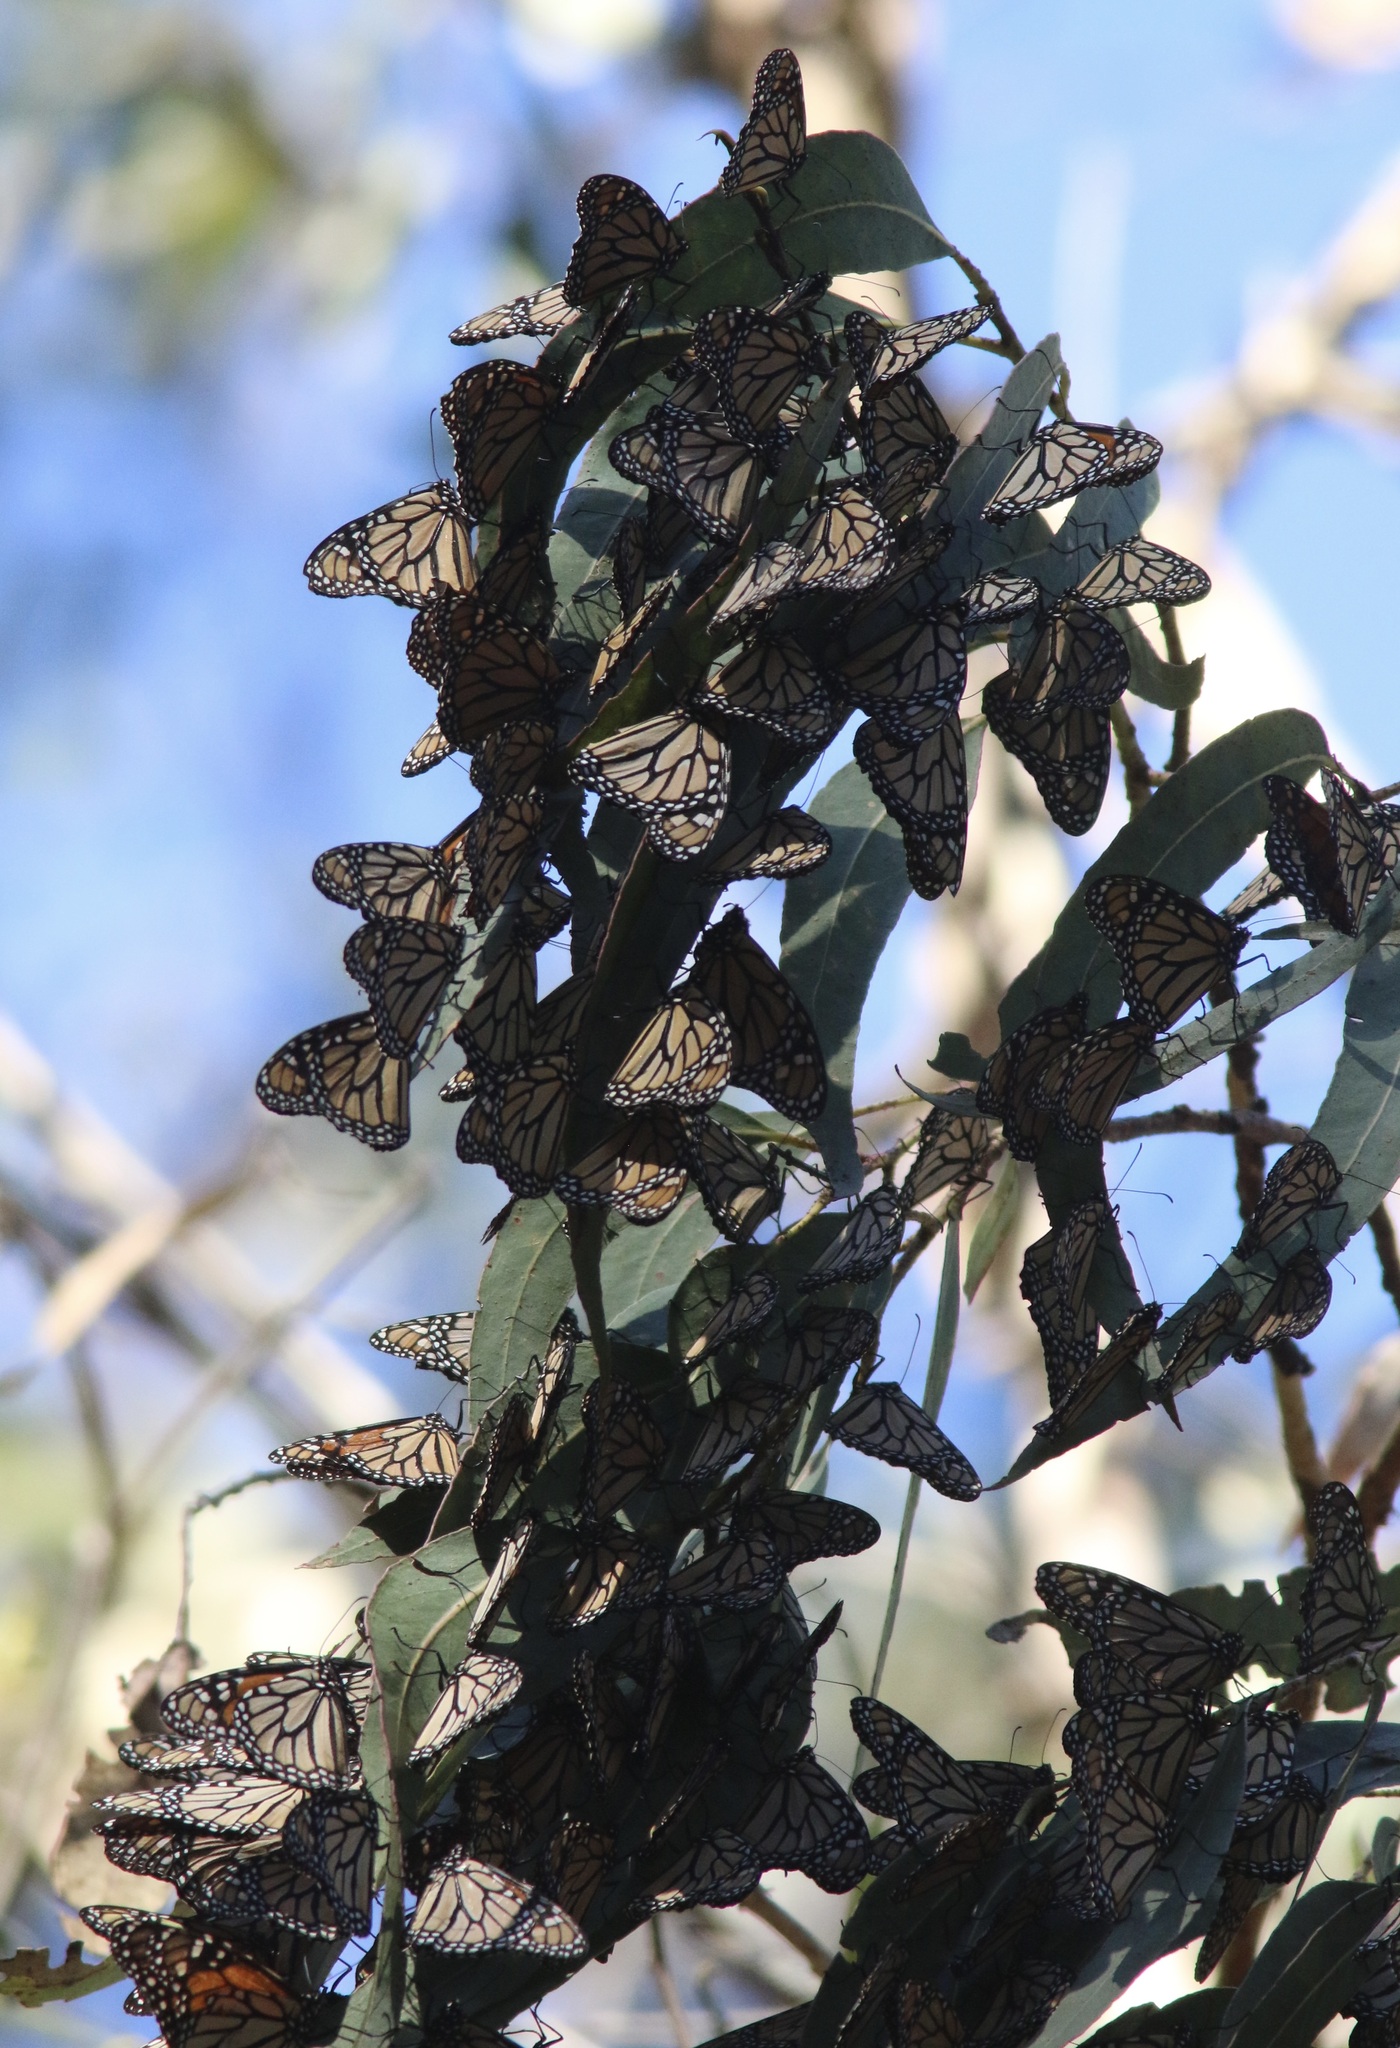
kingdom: Animalia
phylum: Arthropoda
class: Insecta
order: Lepidoptera
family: Nymphalidae
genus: Danaus
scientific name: Danaus plexippus
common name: Monarch
